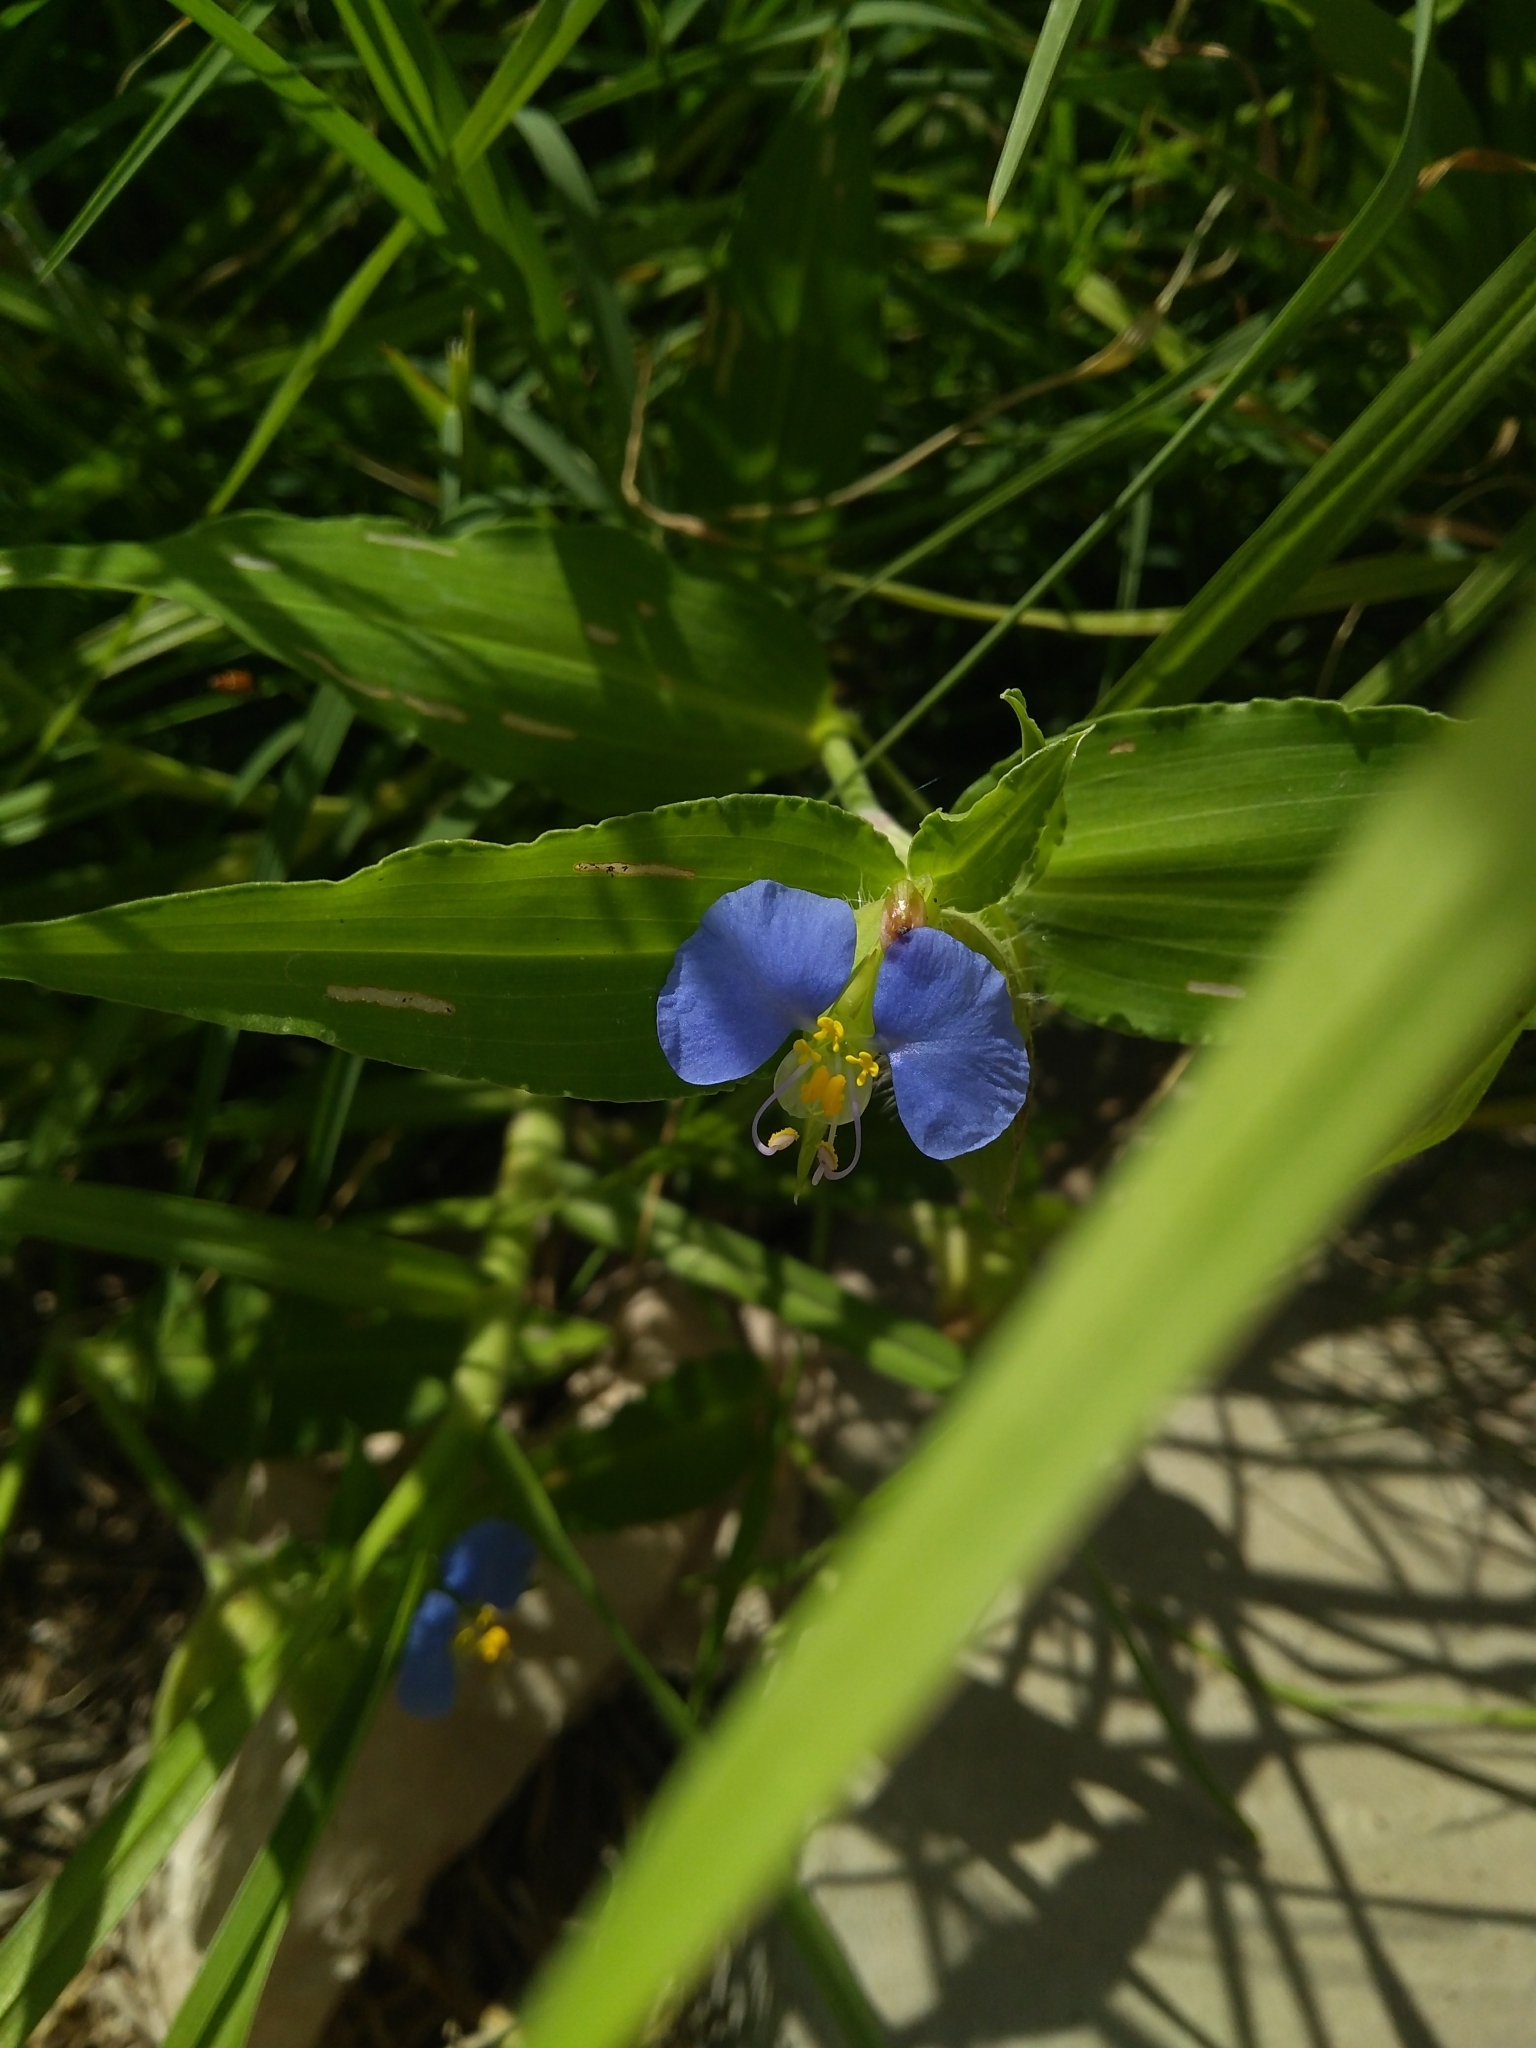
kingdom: Plantae
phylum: Tracheophyta
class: Liliopsida
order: Commelinales
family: Commelinaceae
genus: Commelina
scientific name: Commelina erecta
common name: Blousel blommetjie
